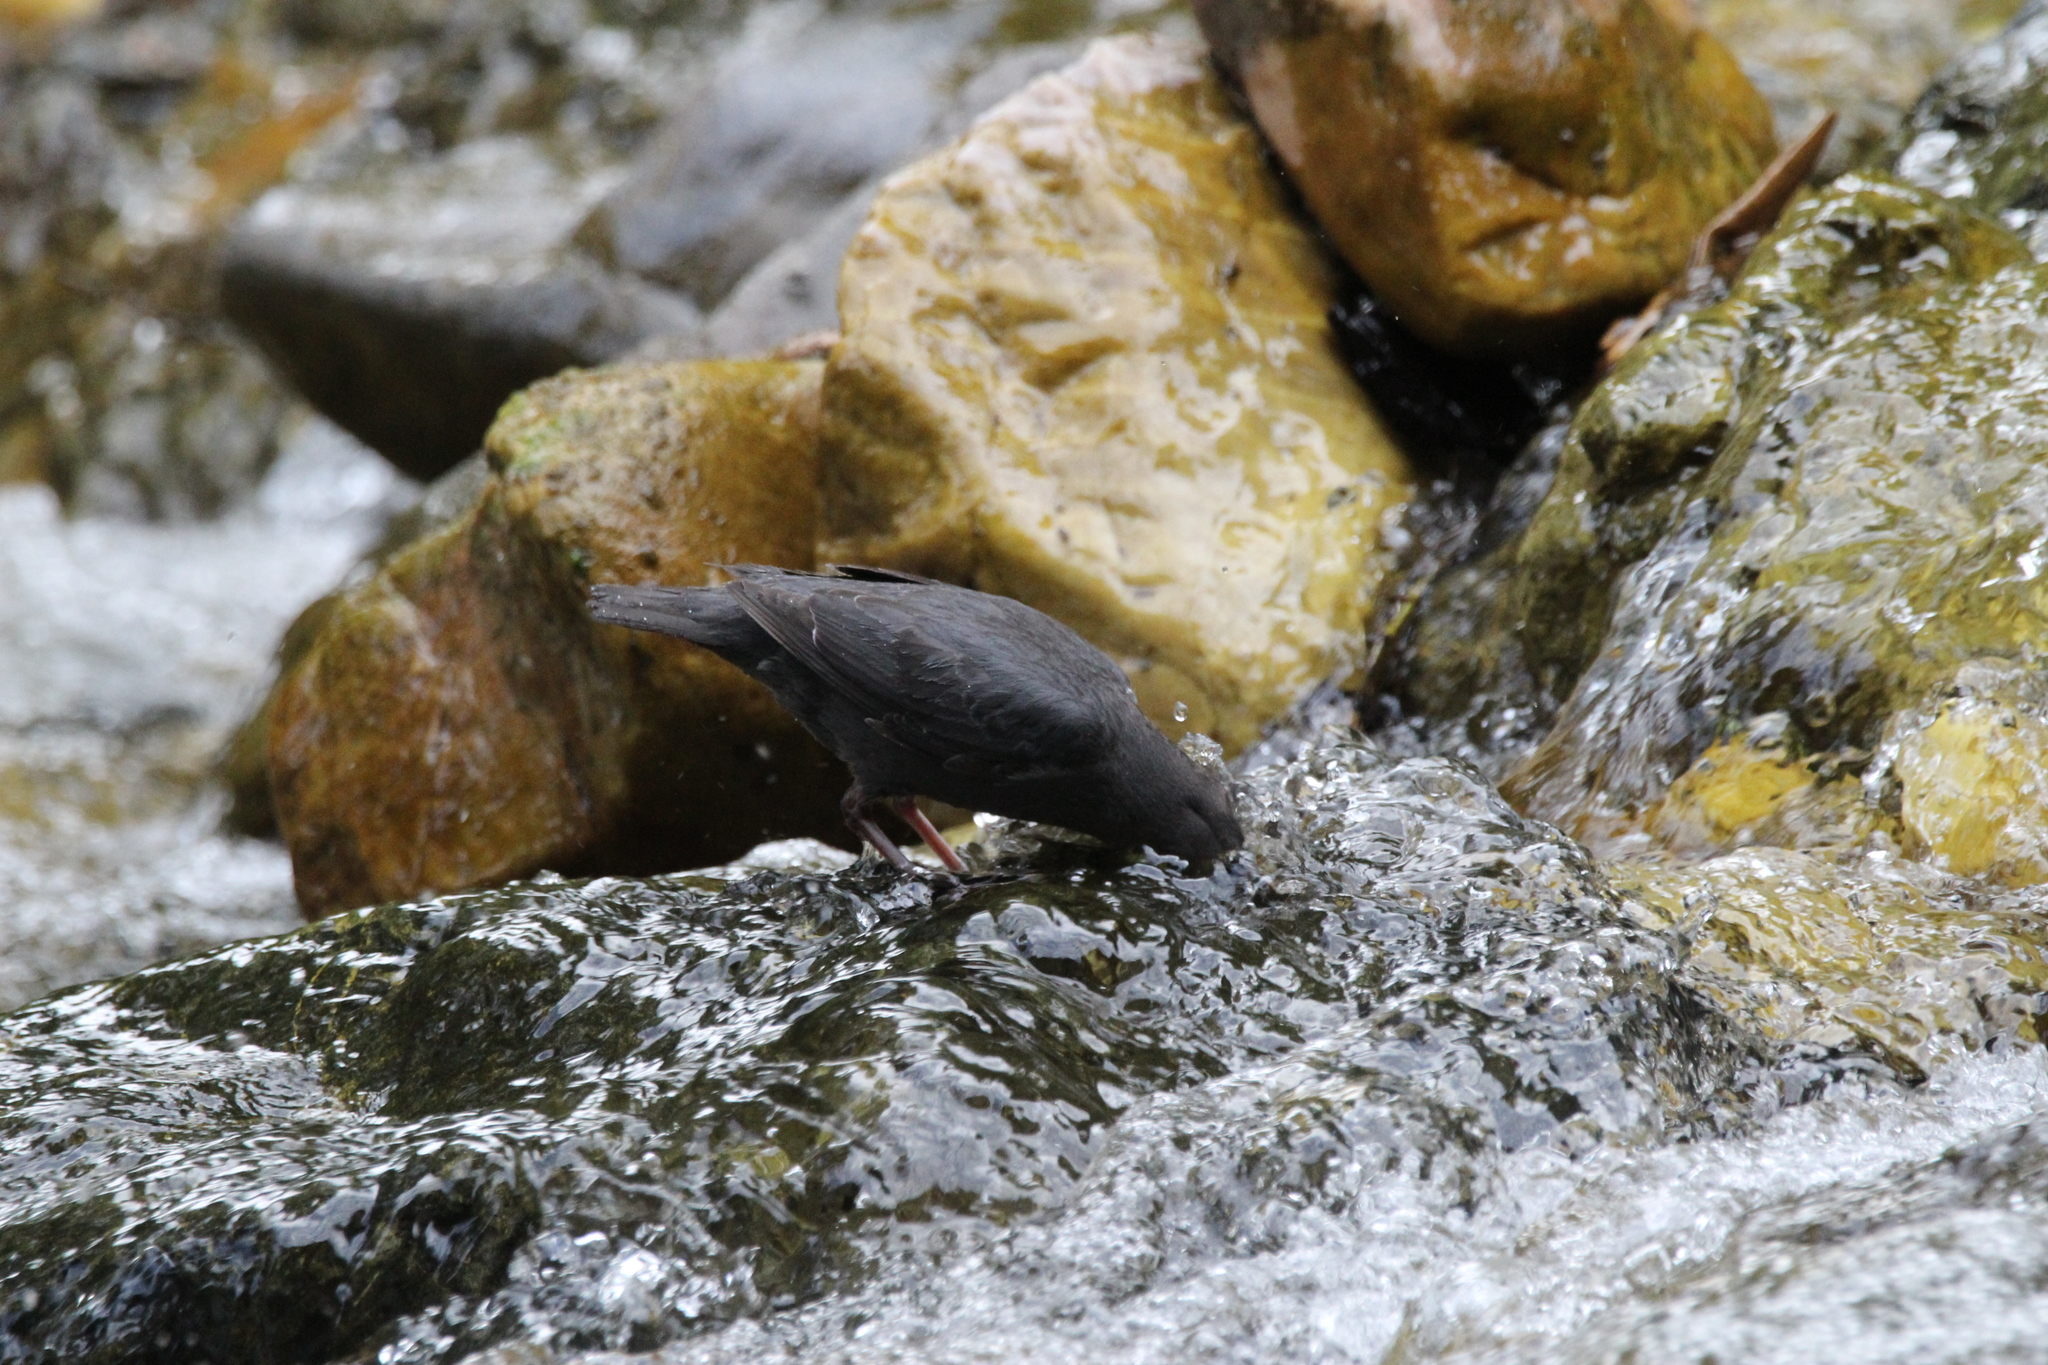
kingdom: Animalia
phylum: Chordata
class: Aves
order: Passeriformes
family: Cinclidae
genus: Cinclus
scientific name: Cinclus mexicanus
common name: American dipper
